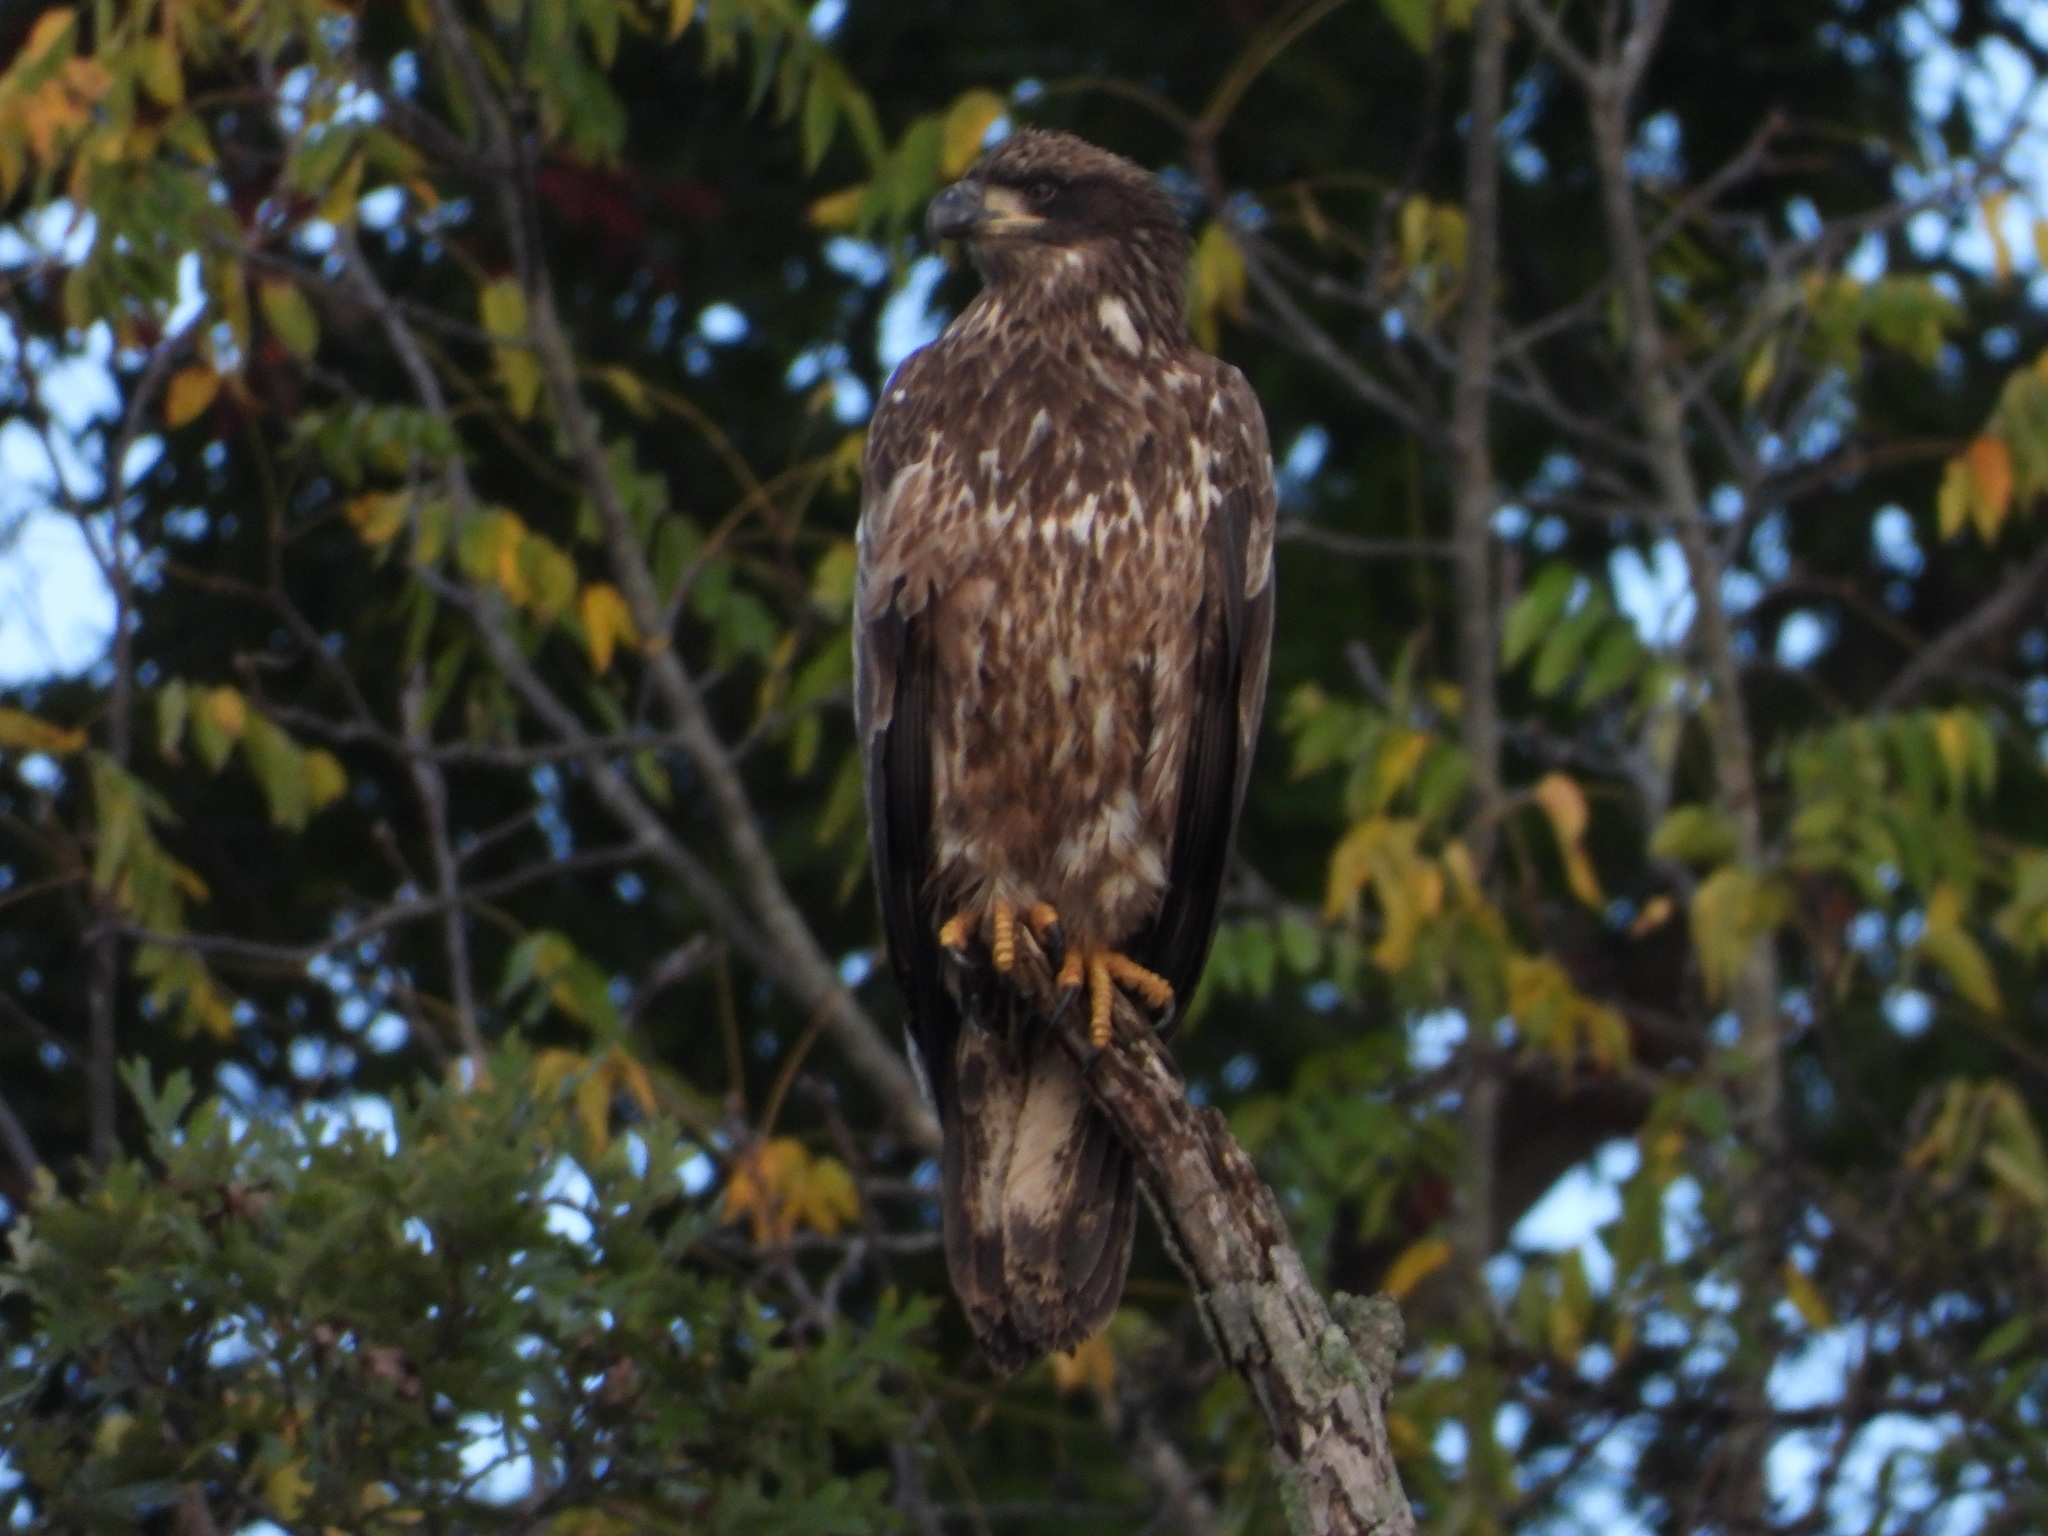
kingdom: Animalia
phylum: Chordata
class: Aves
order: Accipitriformes
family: Accipitridae
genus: Haliaeetus
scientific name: Haliaeetus leucocephalus
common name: Bald eagle
